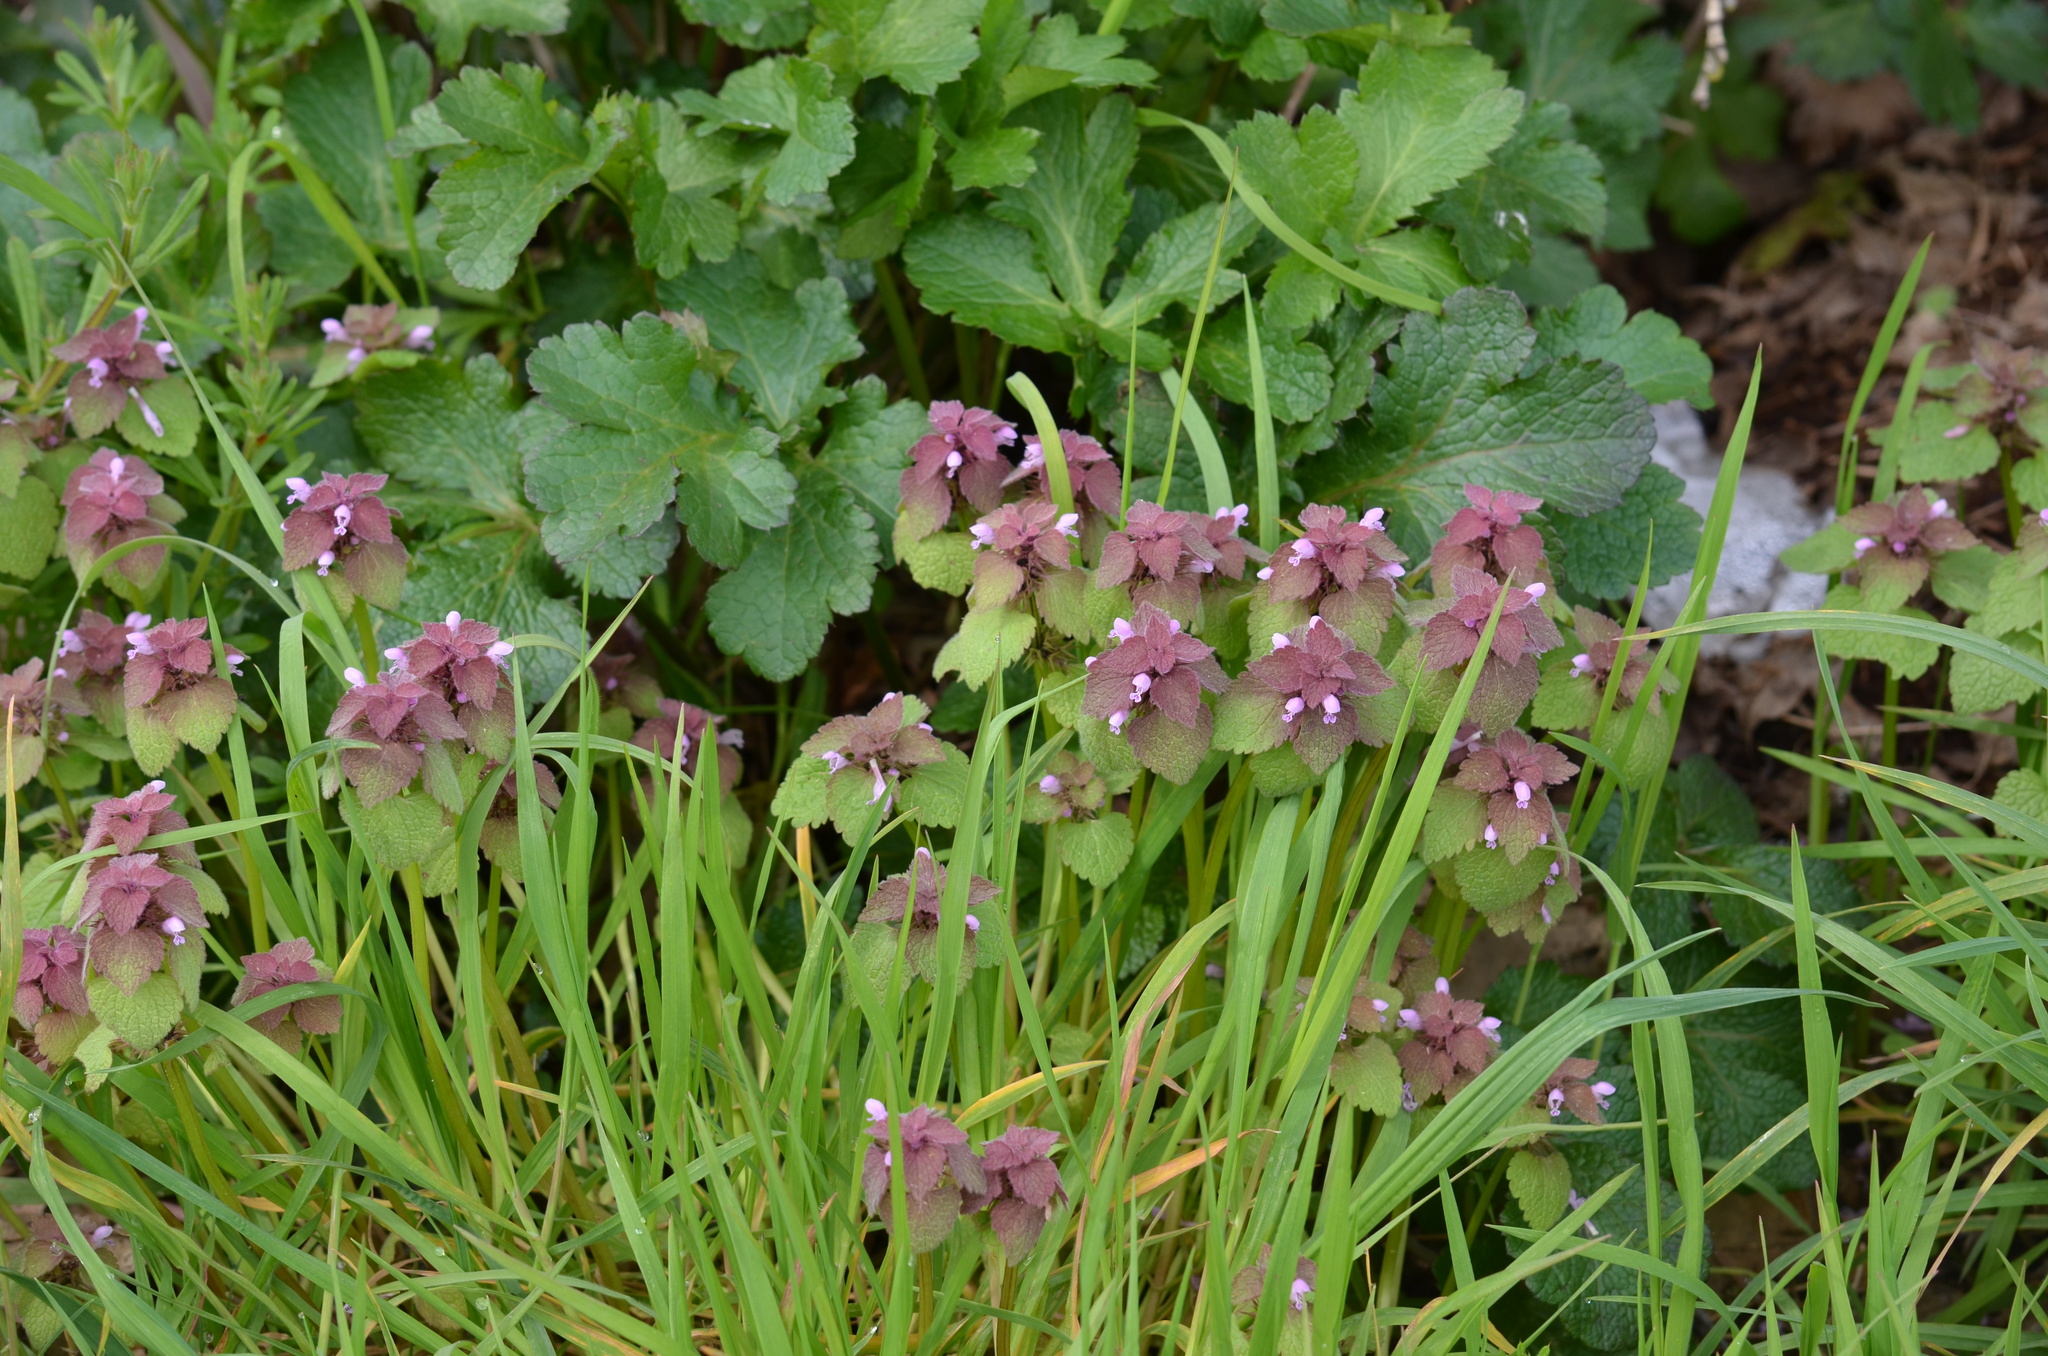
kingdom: Plantae
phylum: Tracheophyta
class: Magnoliopsida
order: Lamiales
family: Lamiaceae
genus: Lamium
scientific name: Lamium purpureum
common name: Red dead-nettle
